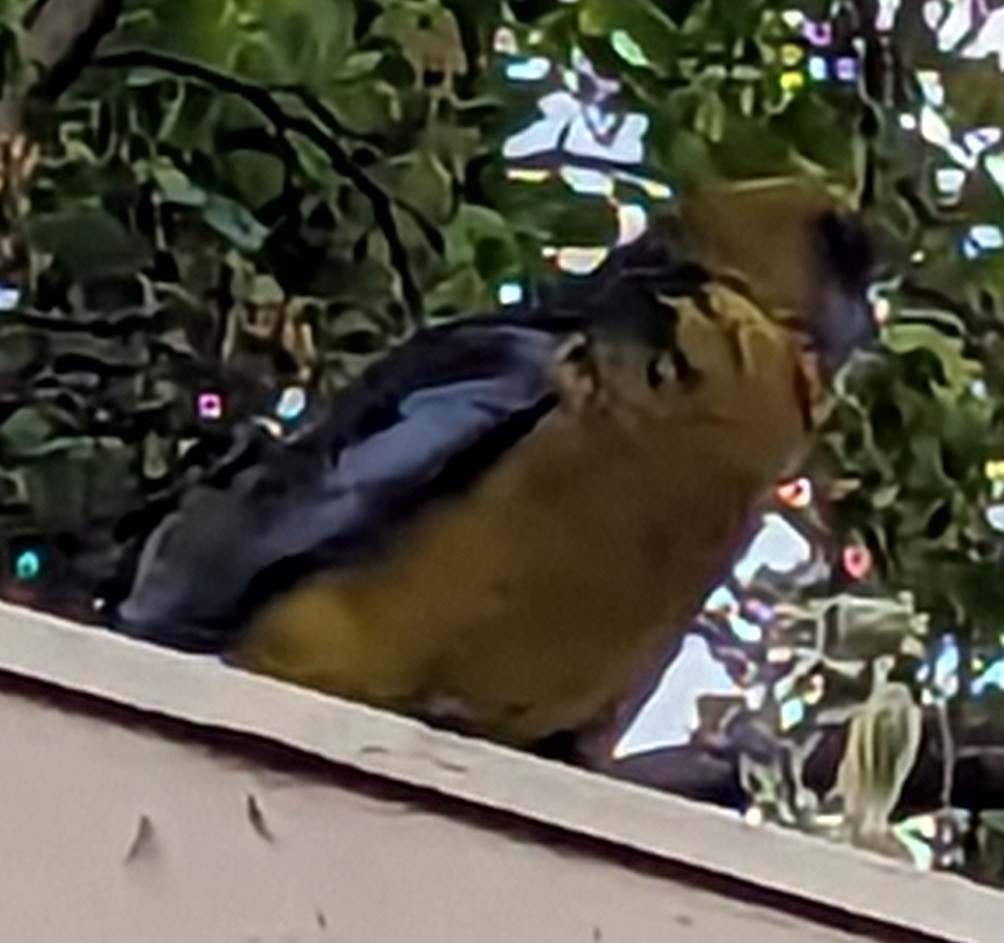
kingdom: Animalia
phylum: Chordata
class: Aves
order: Psittaciformes
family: Psittacidae
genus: Platycercus
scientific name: Platycercus caledonicus
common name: Green rosella
